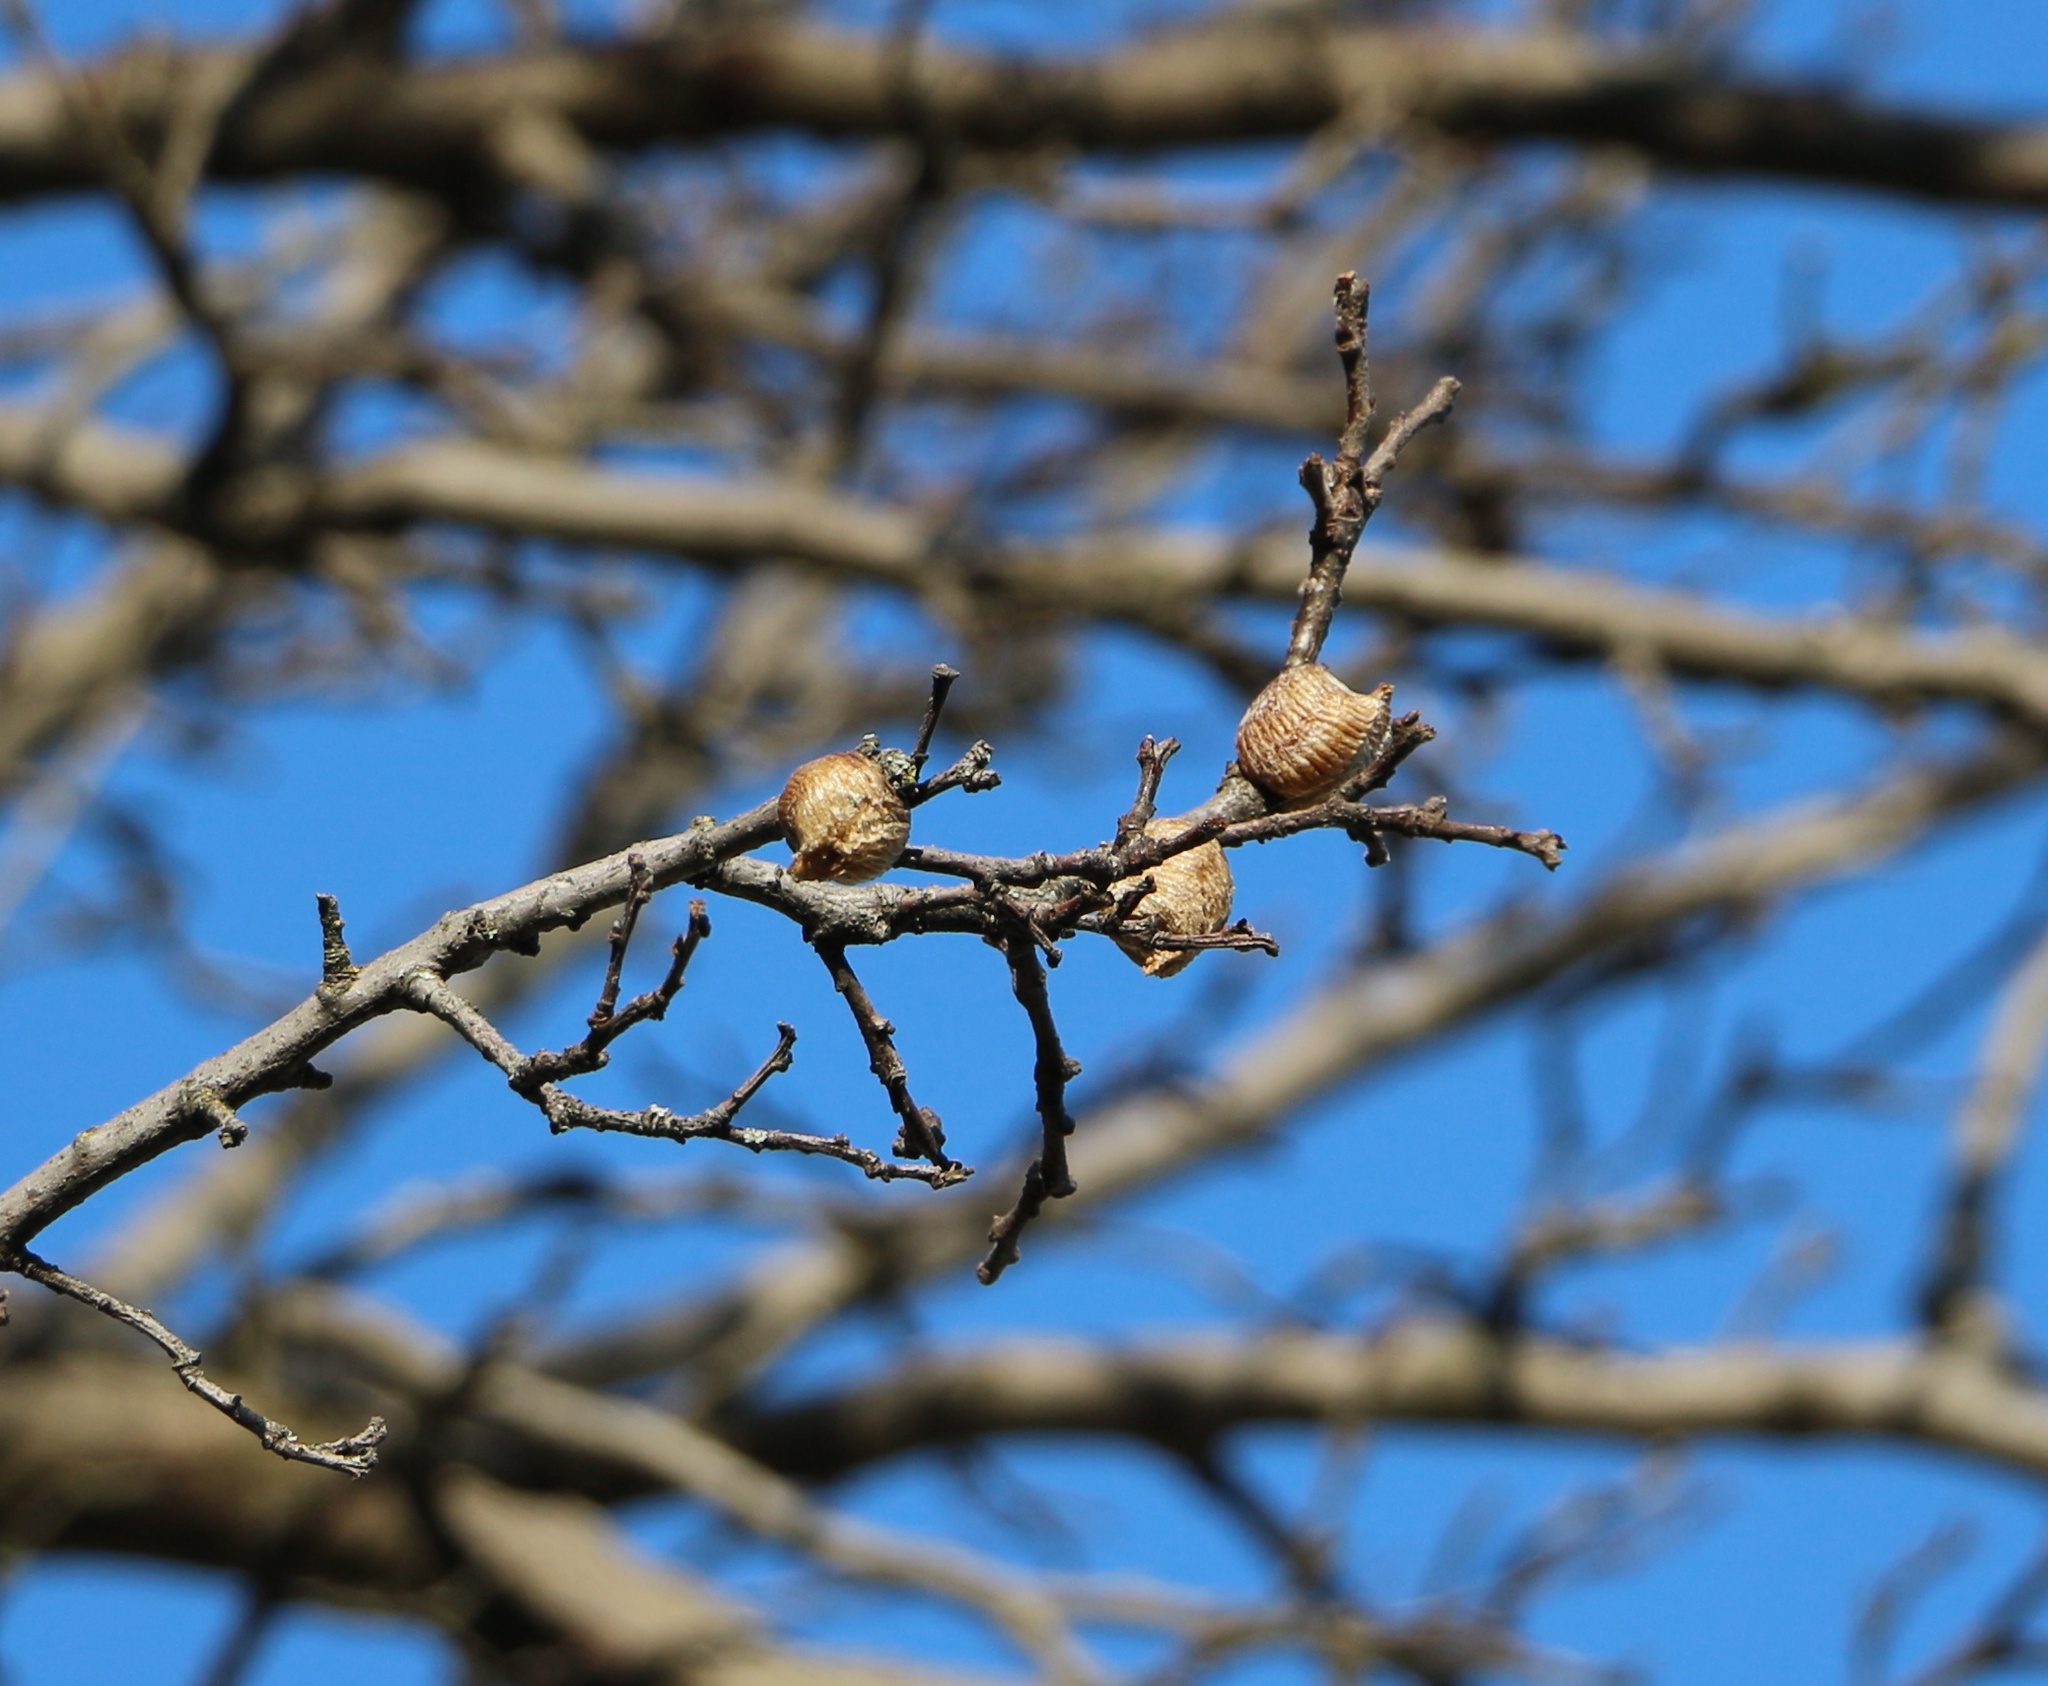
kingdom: Animalia
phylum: Arthropoda
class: Insecta
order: Mantodea
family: Mantidae
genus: Hierodula
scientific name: Hierodula transcaucasica
